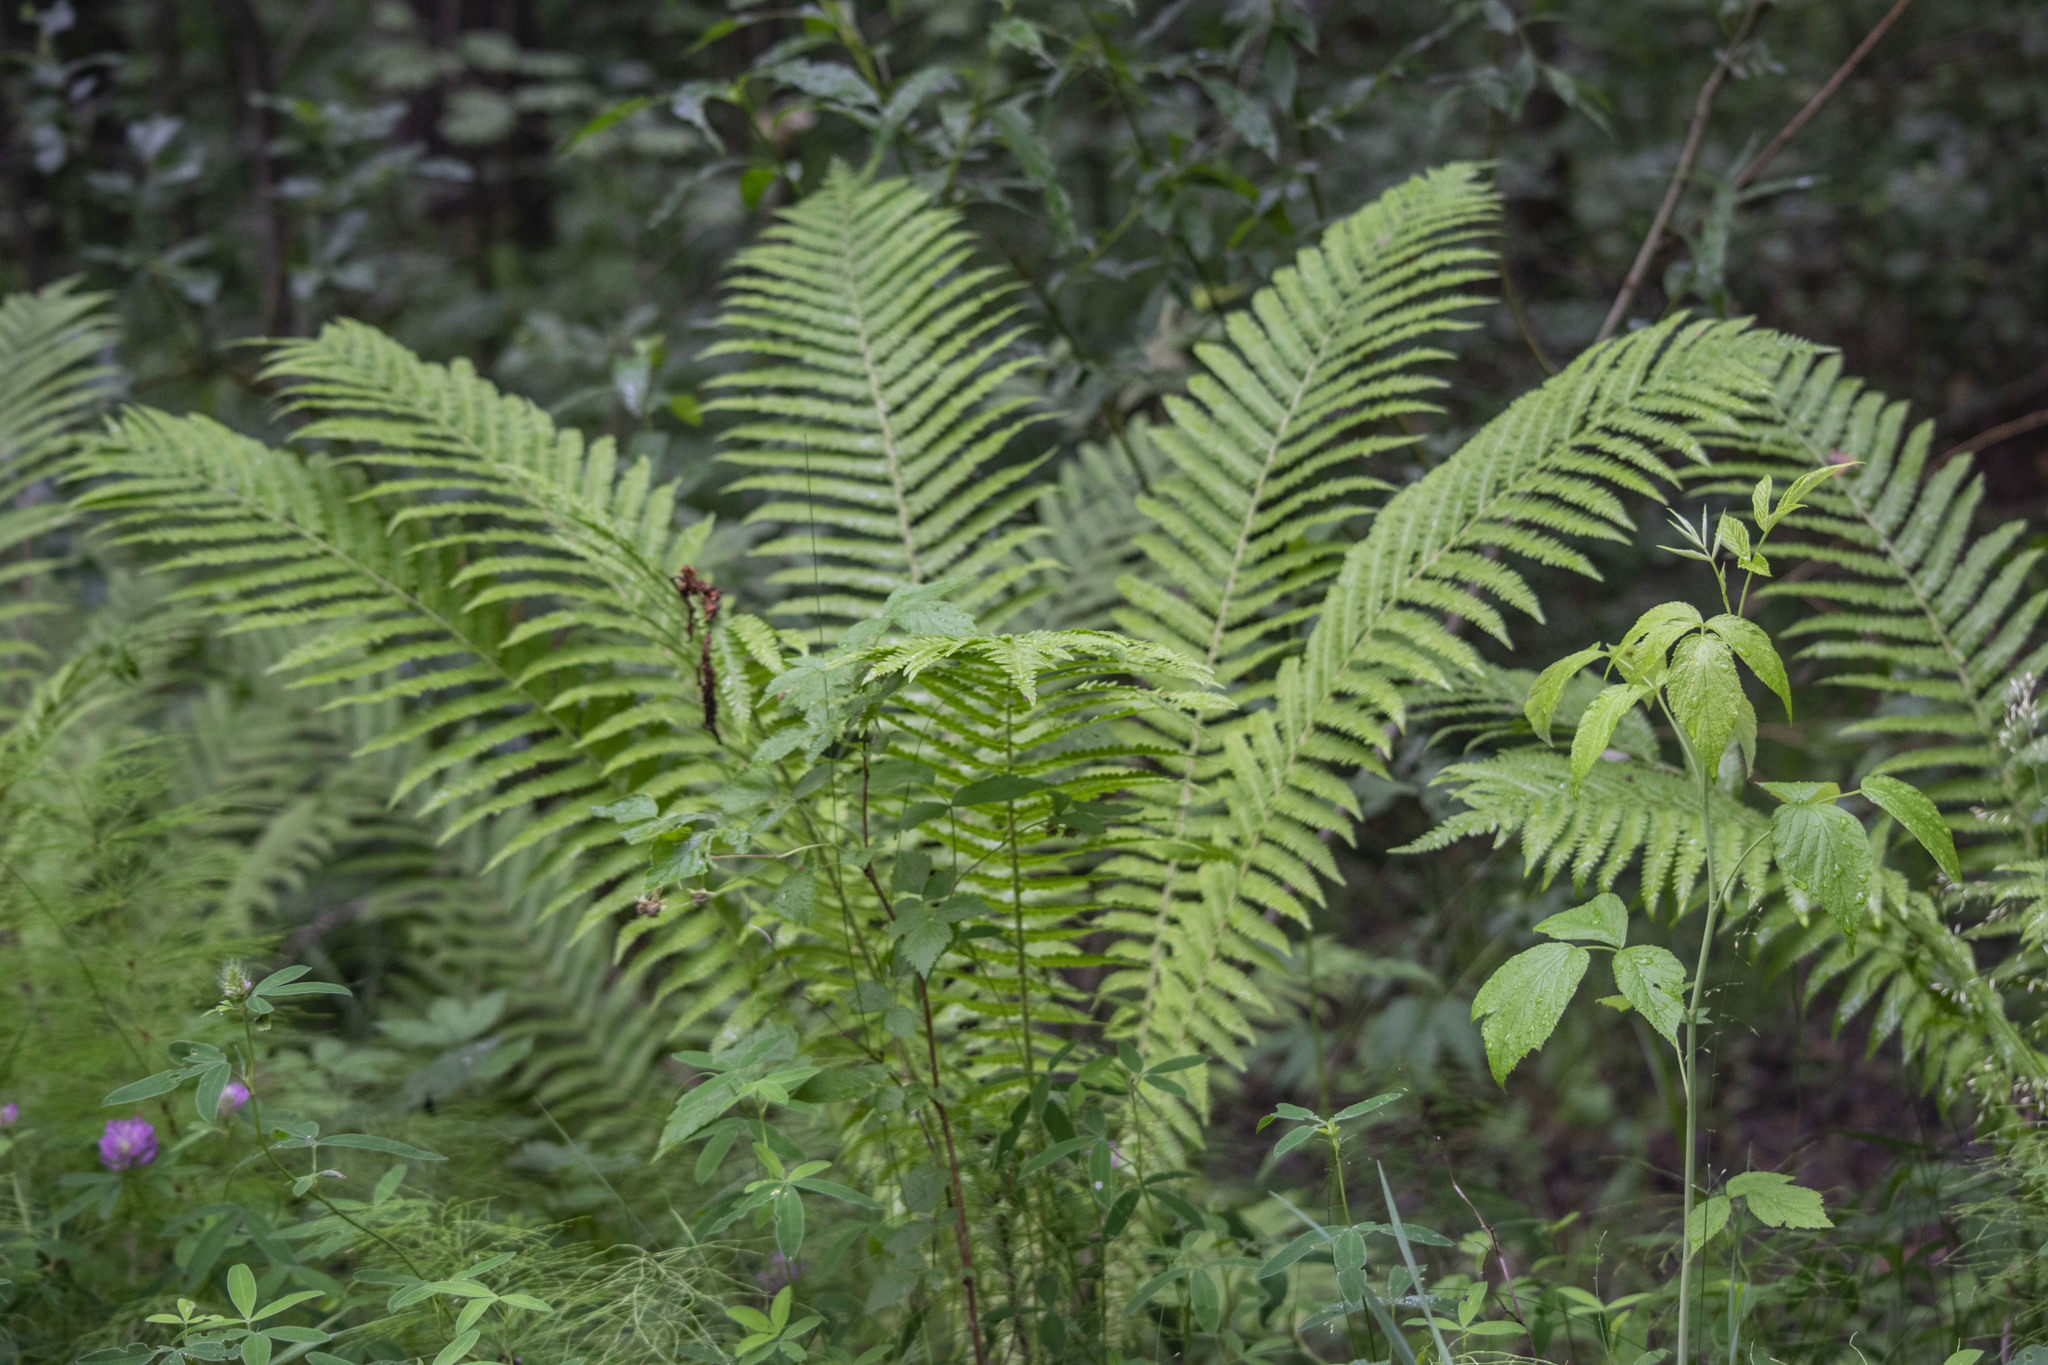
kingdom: Plantae
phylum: Tracheophyta
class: Polypodiopsida
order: Polypodiales
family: Onocleaceae
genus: Matteuccia
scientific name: Matteuccia struthiopteris
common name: Ostrich fern
